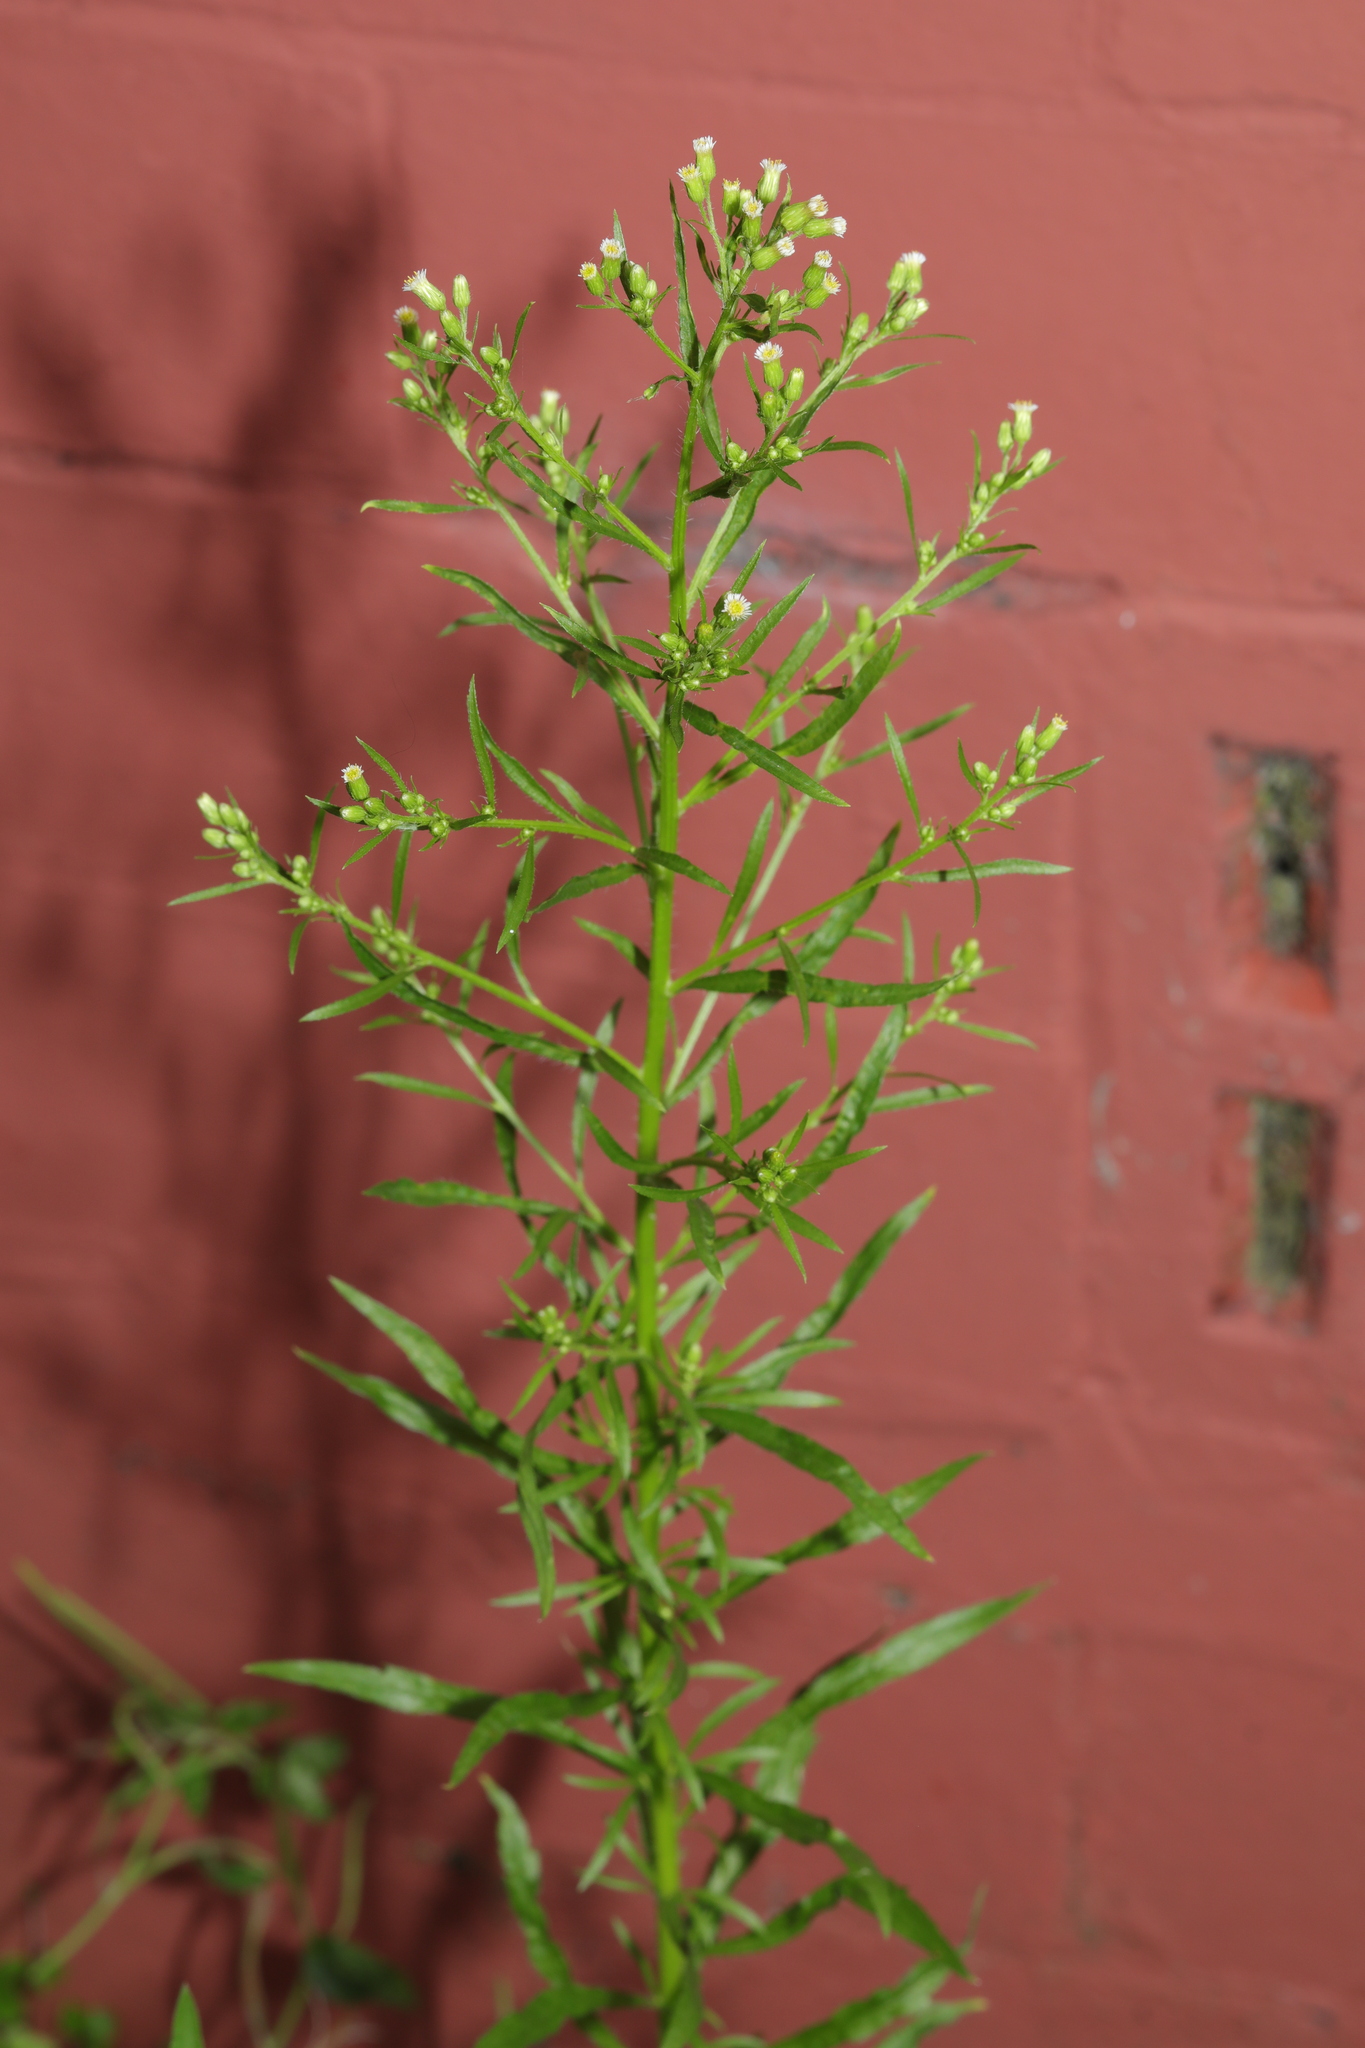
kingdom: Plantae
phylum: Tracheophyta
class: Magnoliopsida
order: Asterales
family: Asteraceae
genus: Erigeron
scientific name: Erigeron canadensis
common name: Canadian fleabane
